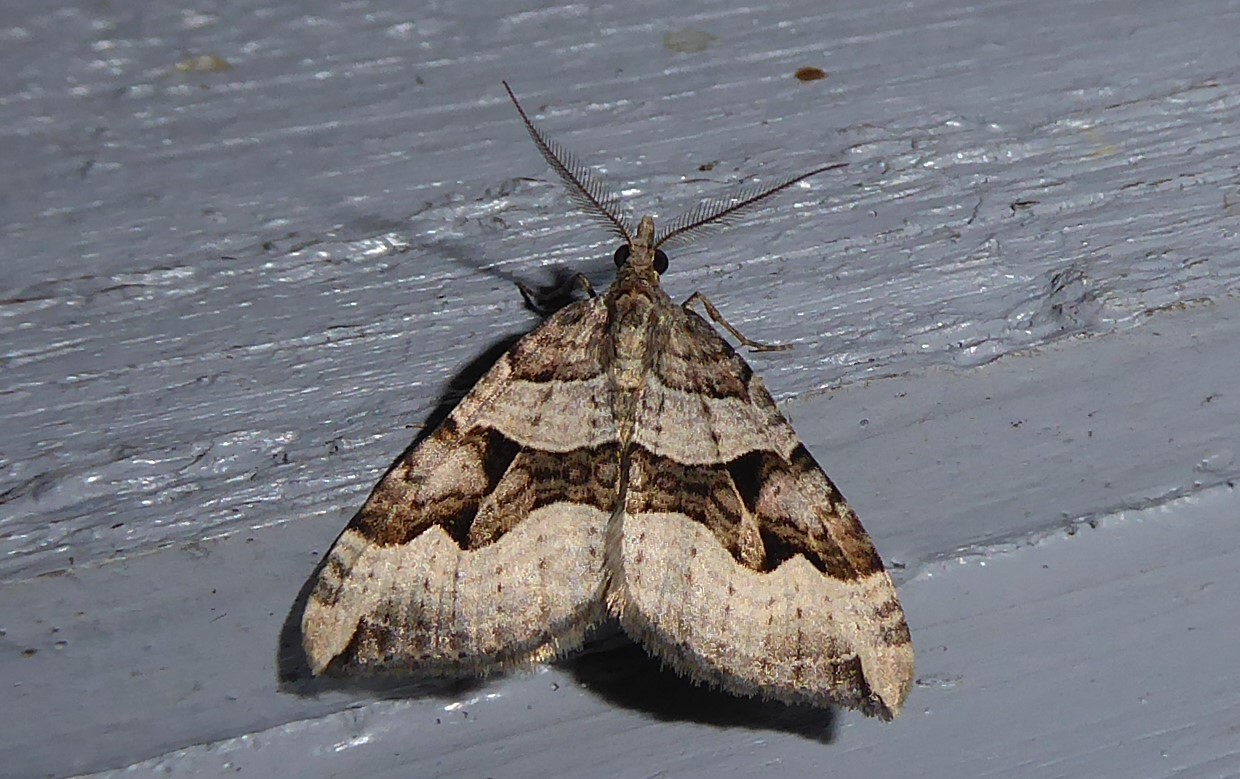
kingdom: Animalia
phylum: Arthropoda
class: Insecta
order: Lepidoptera
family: Geometridae
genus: Xanthorhoe
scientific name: Xanthorhoe semifissata
